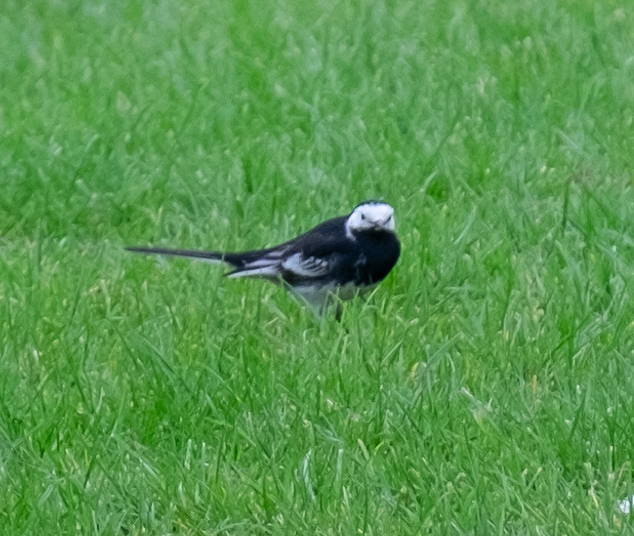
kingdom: Animalia
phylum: Chordata
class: Aves
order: Passeriformes
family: Motacillidae
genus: Motacilla
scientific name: Motacilla alba
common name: White wagtail
